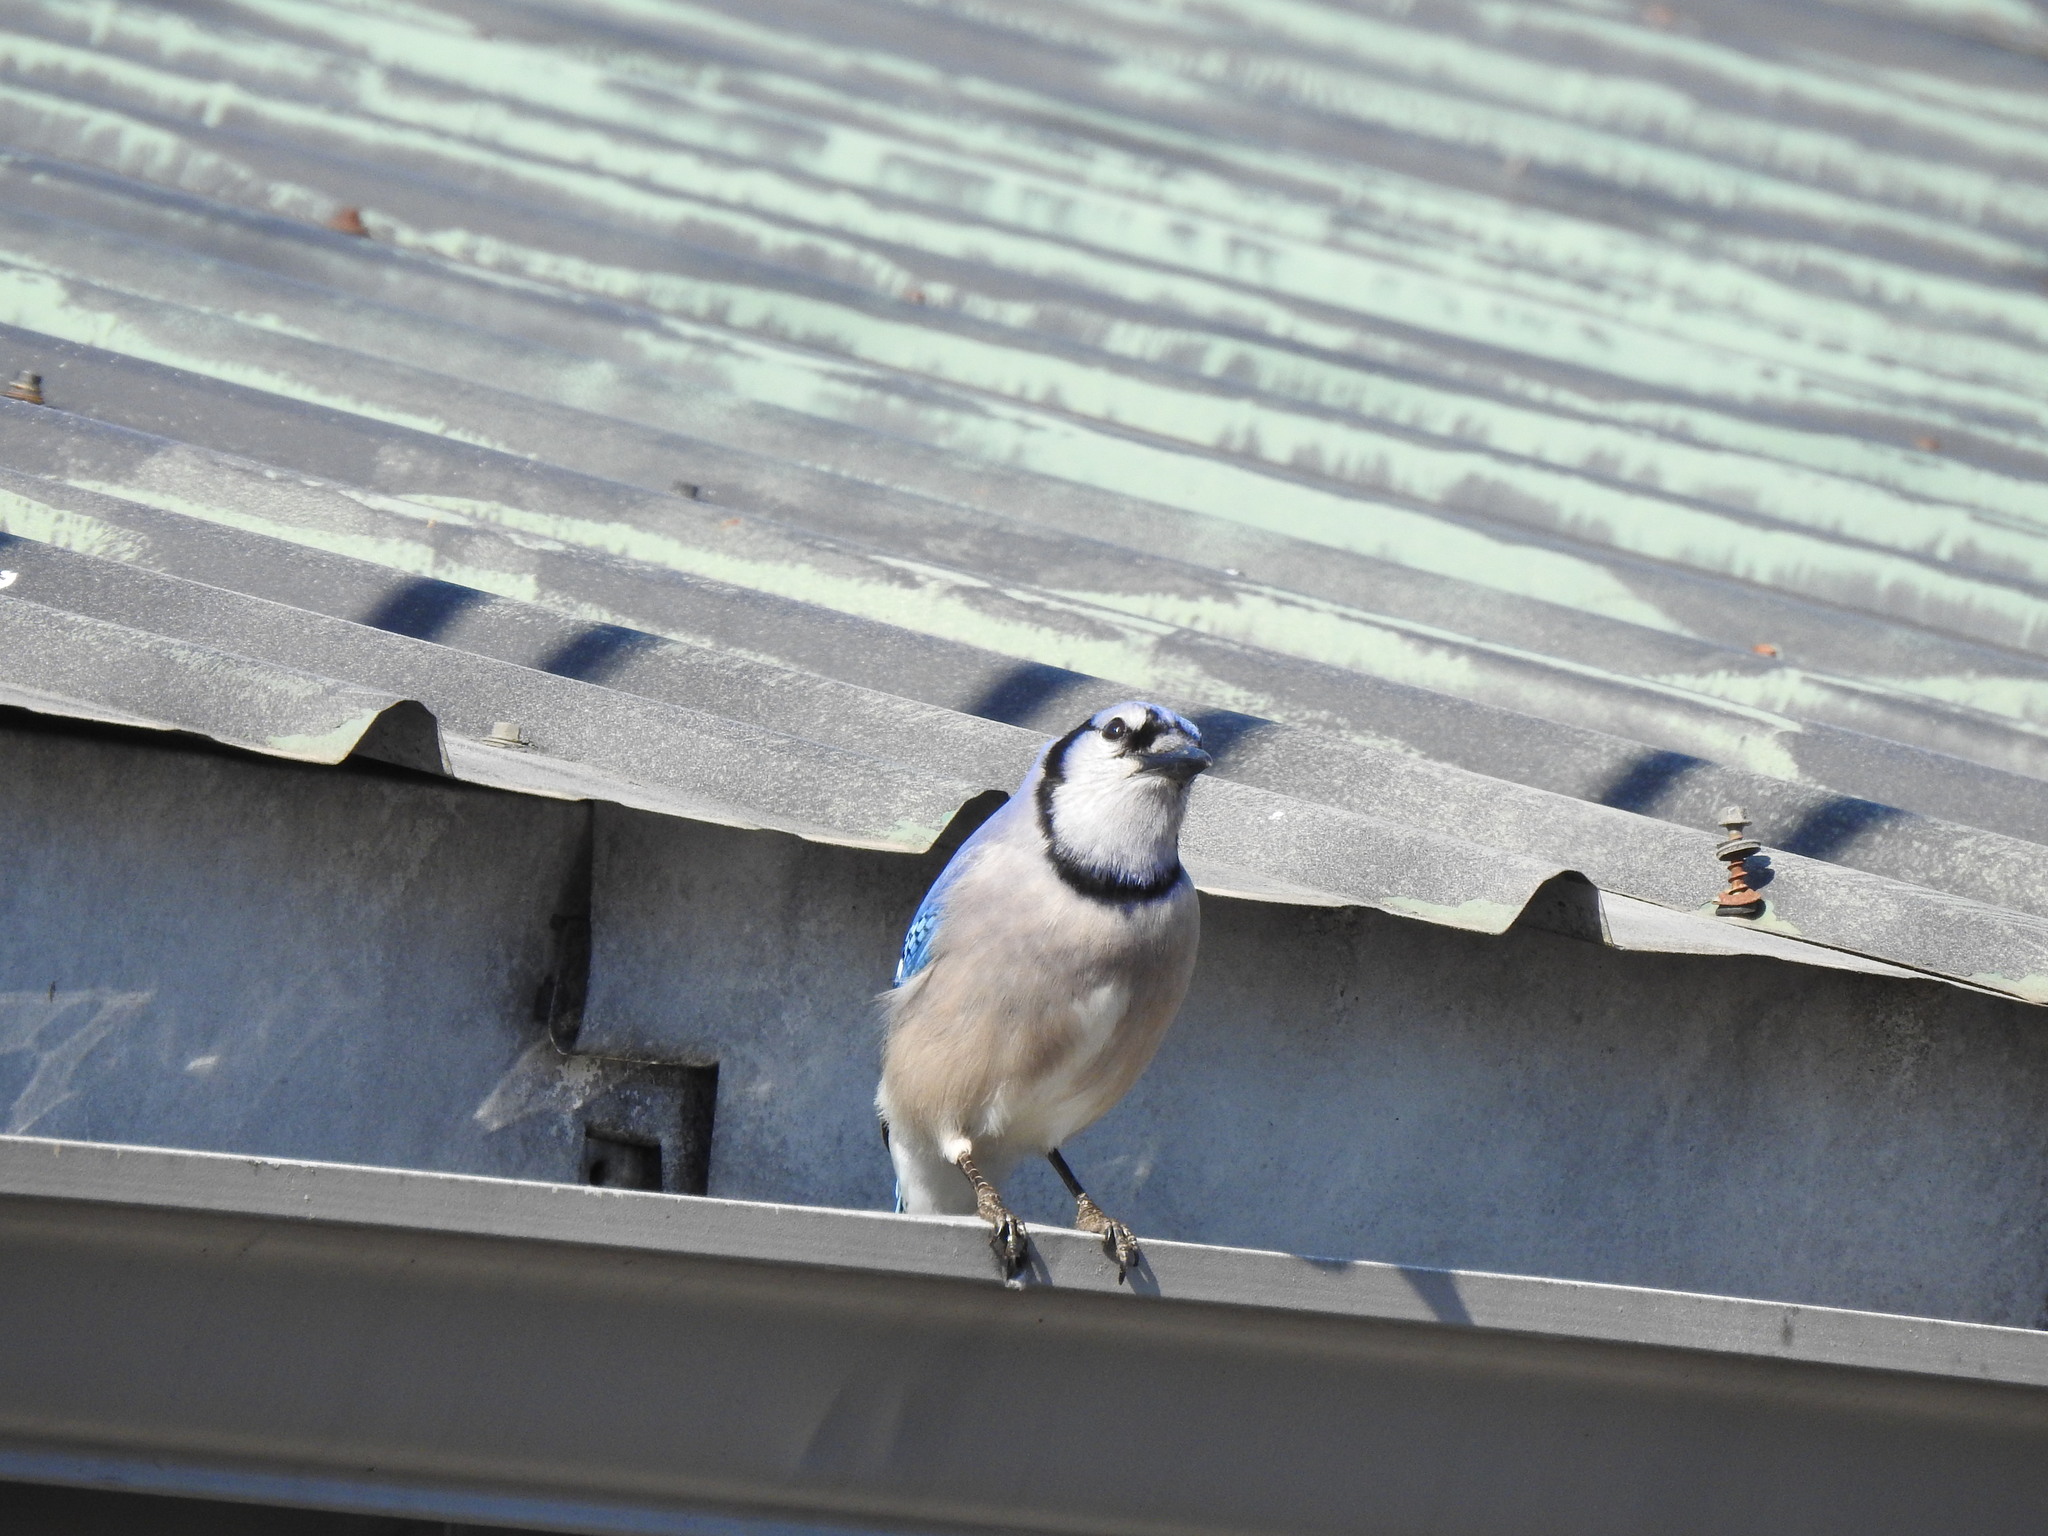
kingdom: Animalia
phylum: Chordata
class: Aves
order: Passeriformes
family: Corvidae
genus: Cyanocitta
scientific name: Cyanocitta cristata
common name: Blue jay
